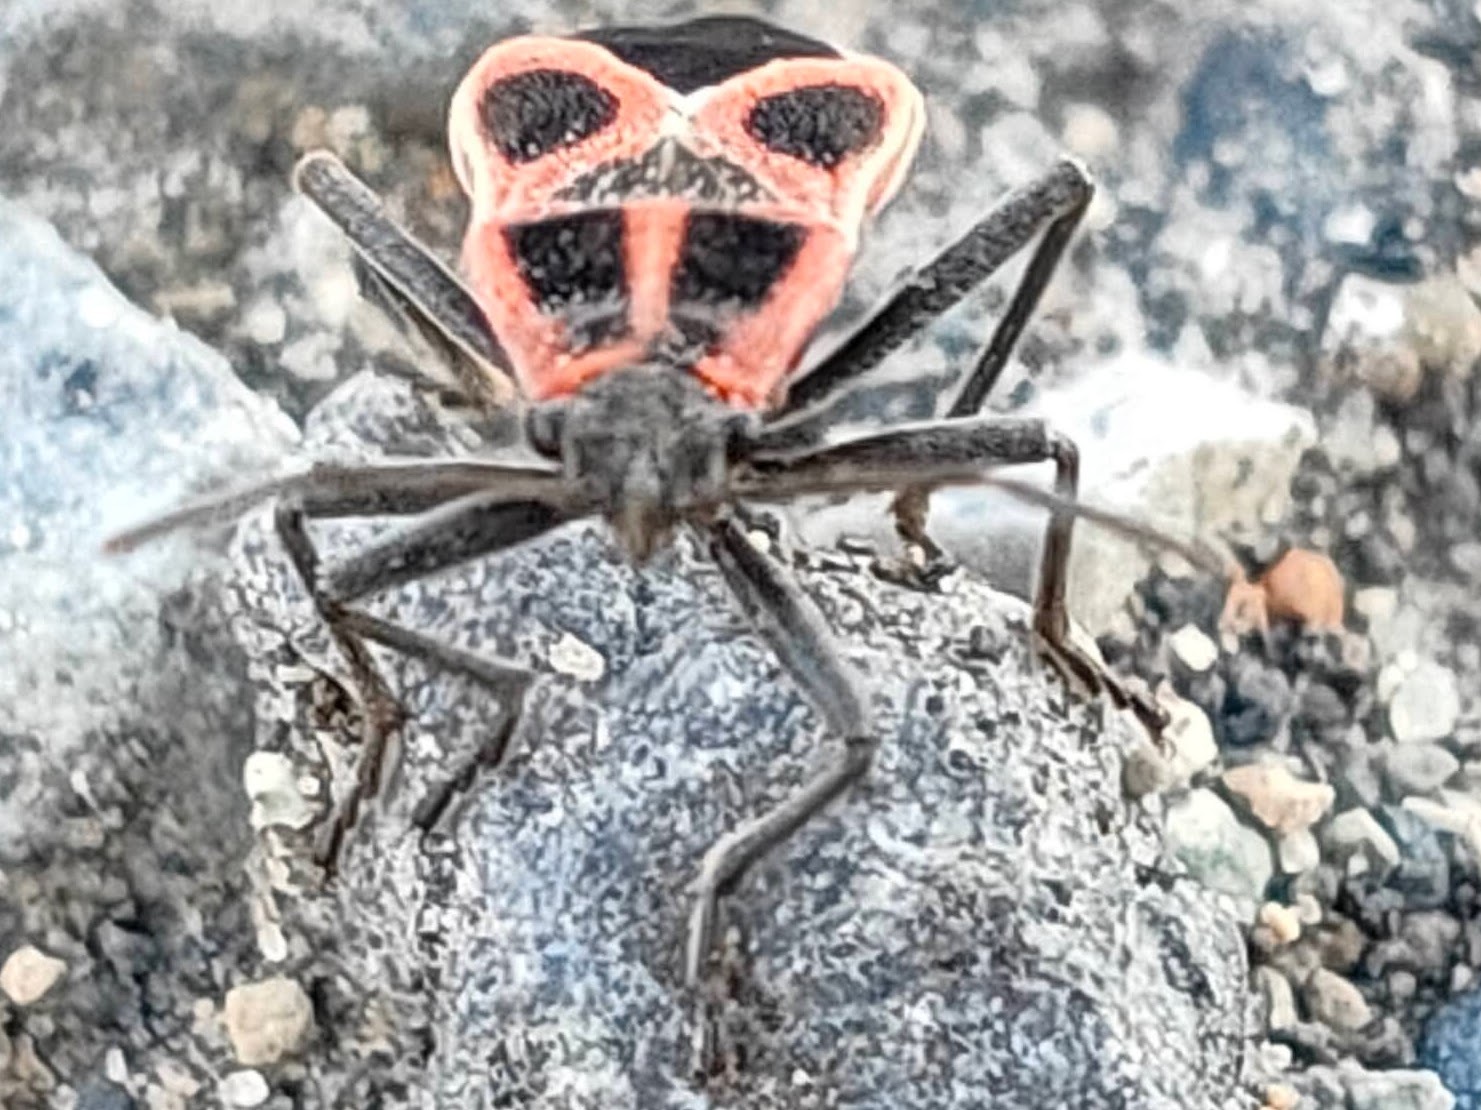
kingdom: Animalia
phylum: Arthropoda
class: Insecta
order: Hemiptera
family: Lygaeidae
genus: Tropidothorax
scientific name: Tropidothorax cruciger
